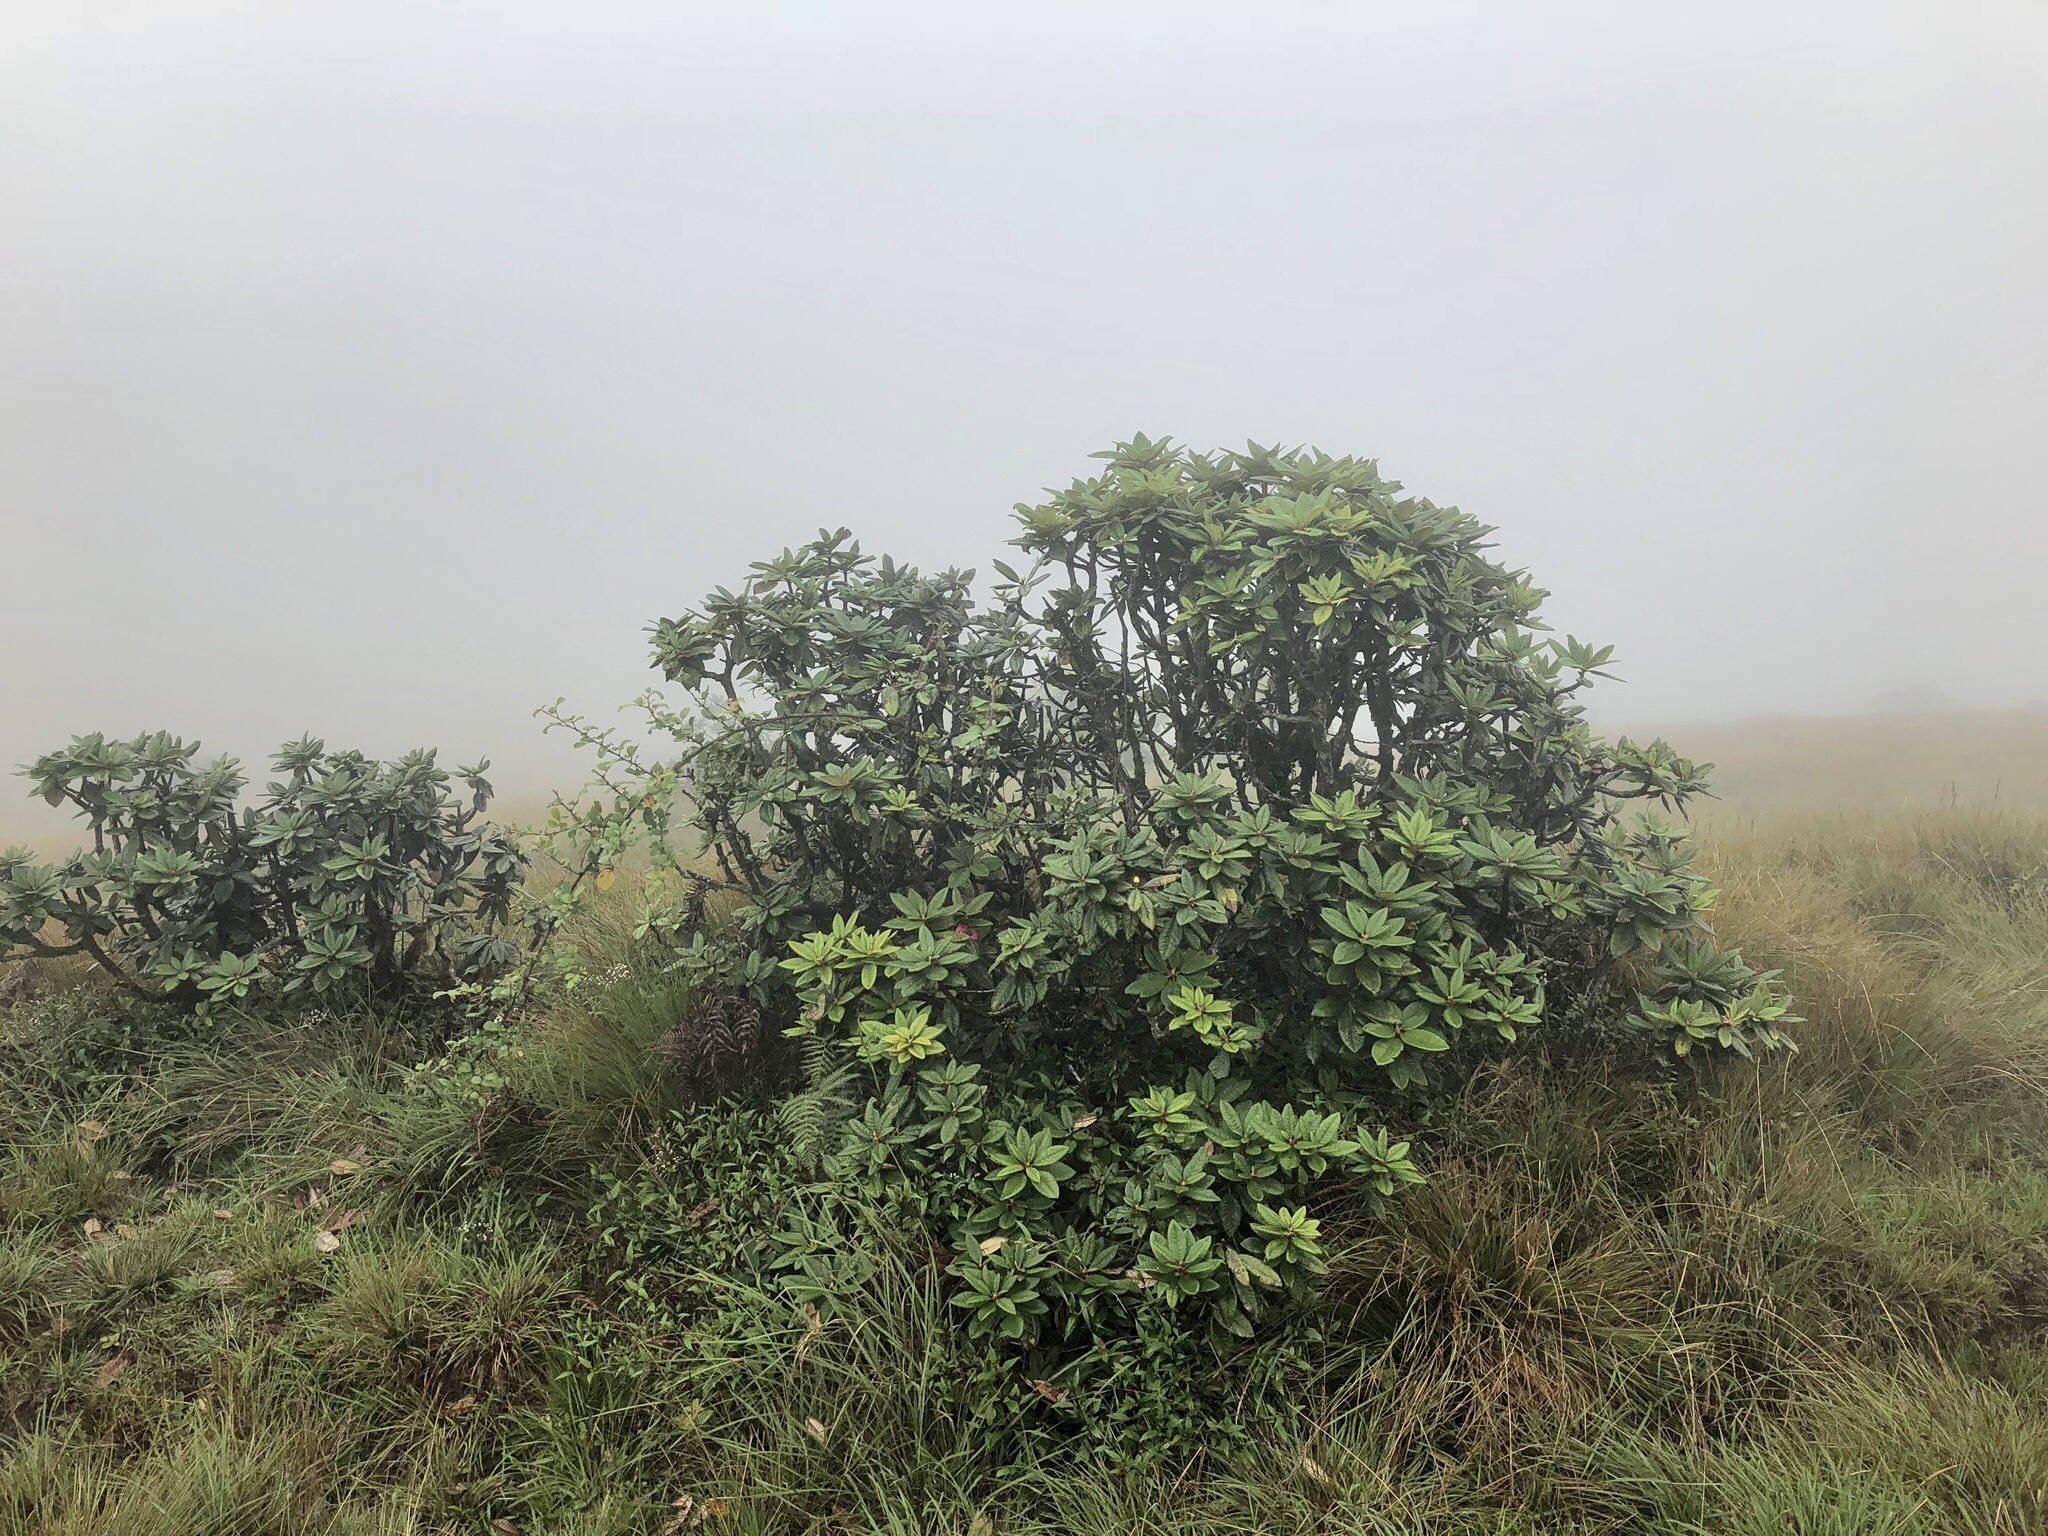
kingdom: Plantae
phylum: Tracheophyta
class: Magnoliopsida
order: Ericales
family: Ericaceae
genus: Rhododendron
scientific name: Rhododendron arboreum
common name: Tree rhododendron
